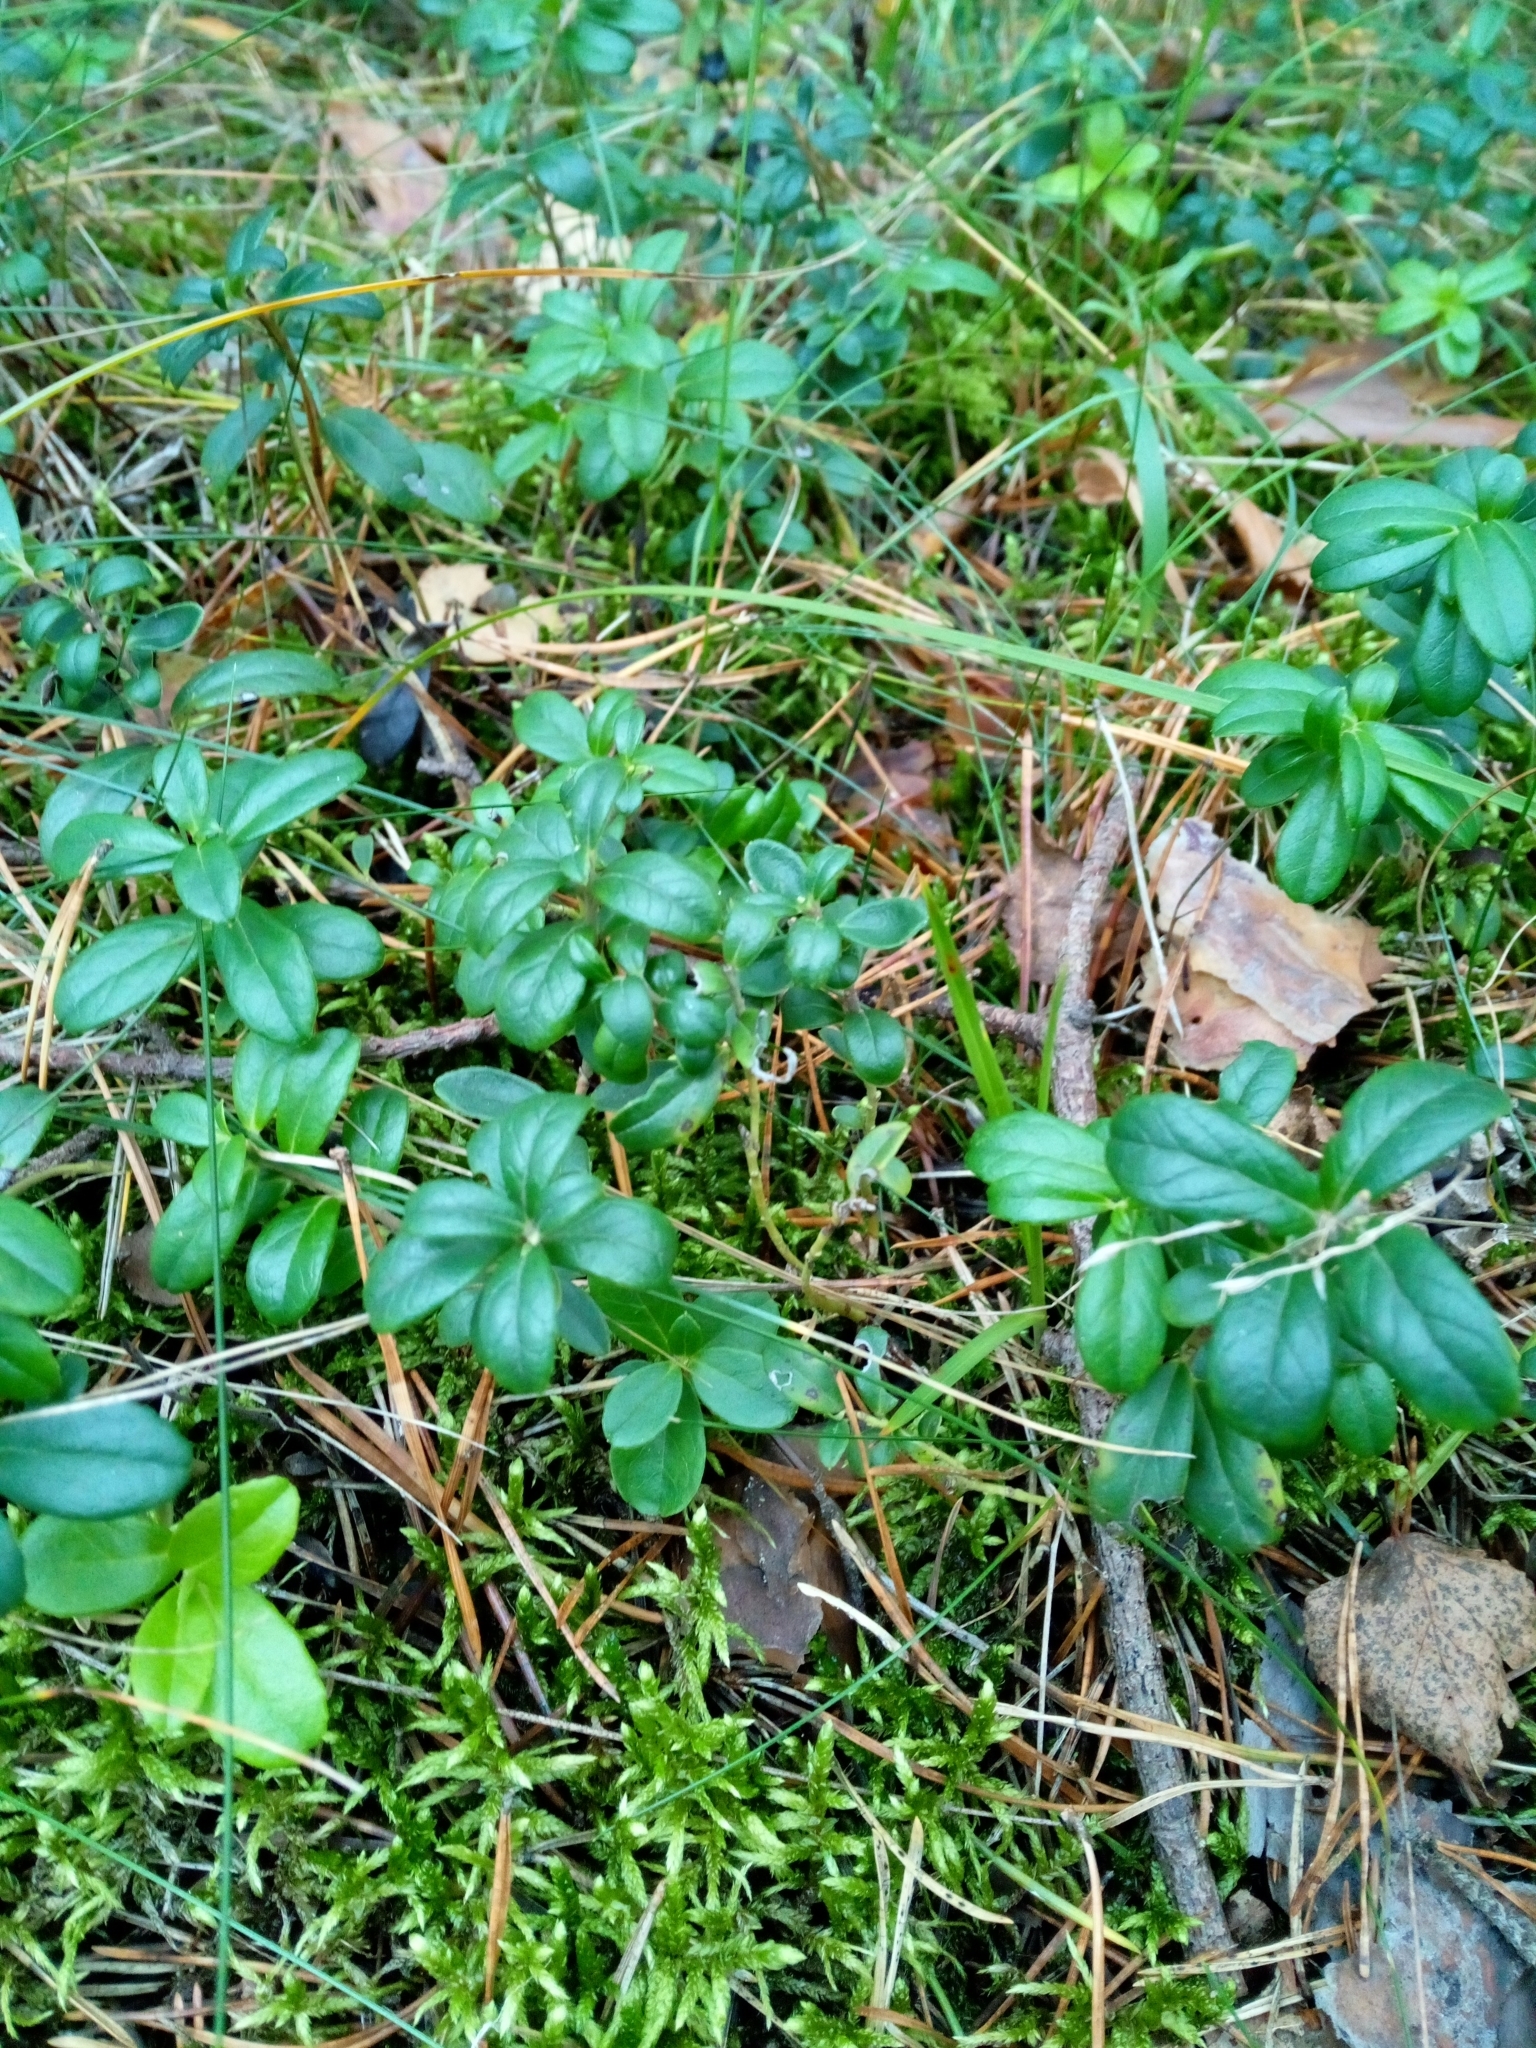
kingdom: Plantae
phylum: Tracheophyta
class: Magnoliopsida
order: Ericales
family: Ericaceae
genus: Vaccinium
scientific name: Vaccinium vitis-idaea
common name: Cowberry
